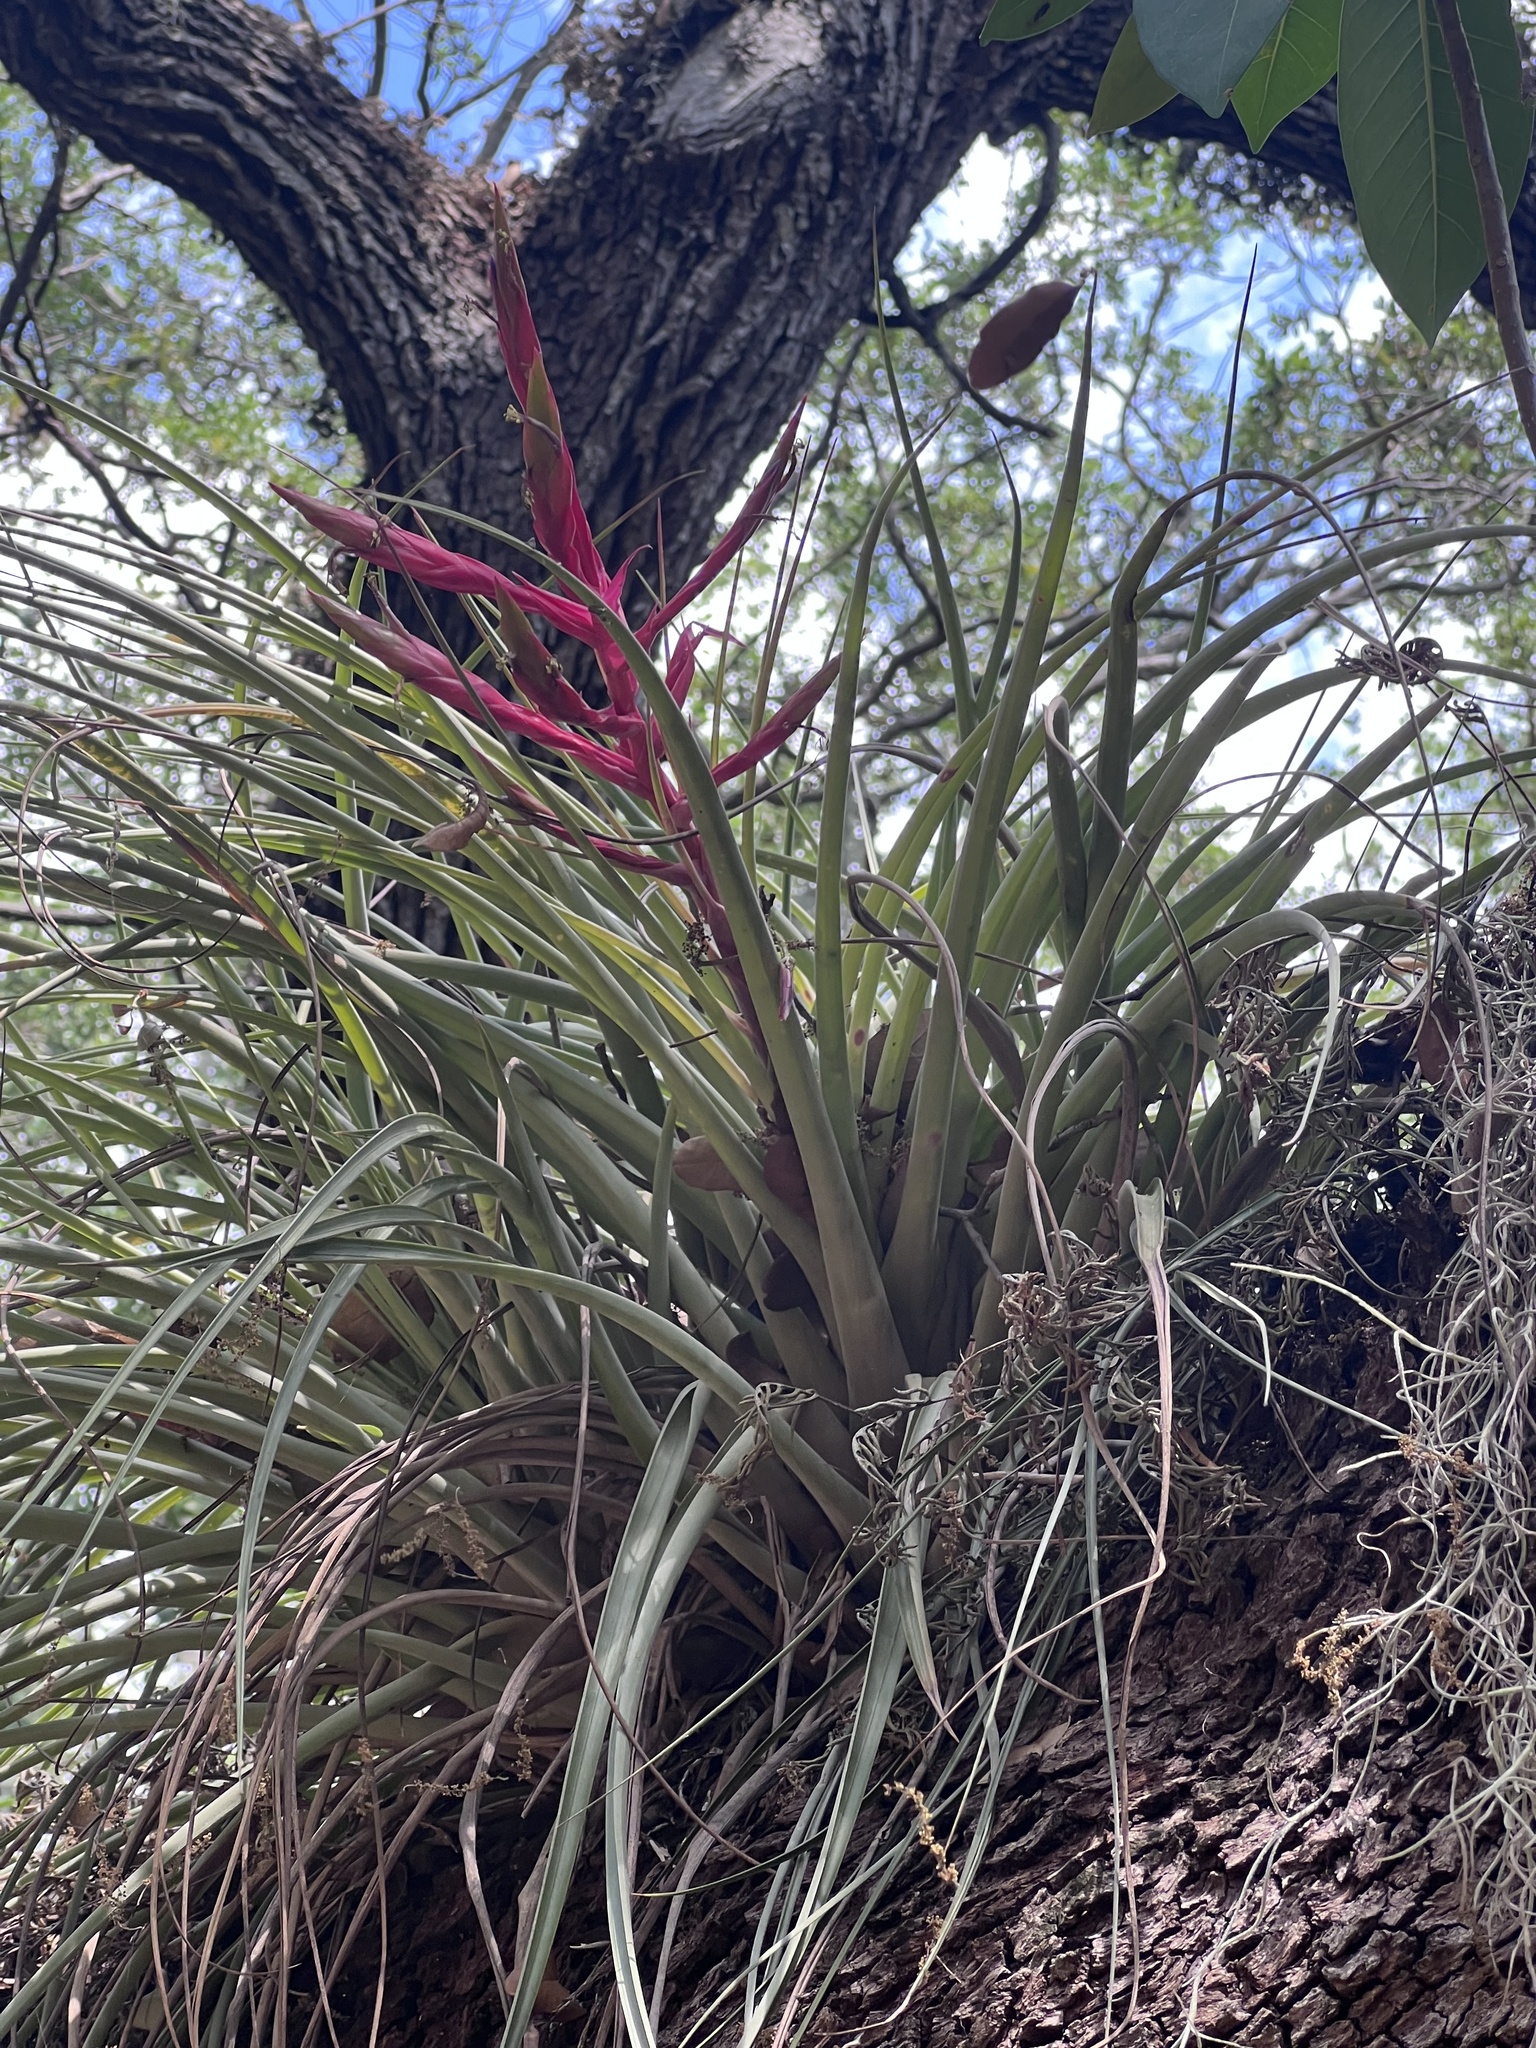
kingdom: Plantae
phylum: Tracheophyta
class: Liliopsida
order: Poales
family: Bromeliaceae
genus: Tillandsia
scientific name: Tillandsia fasciculata
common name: Giant airplant
